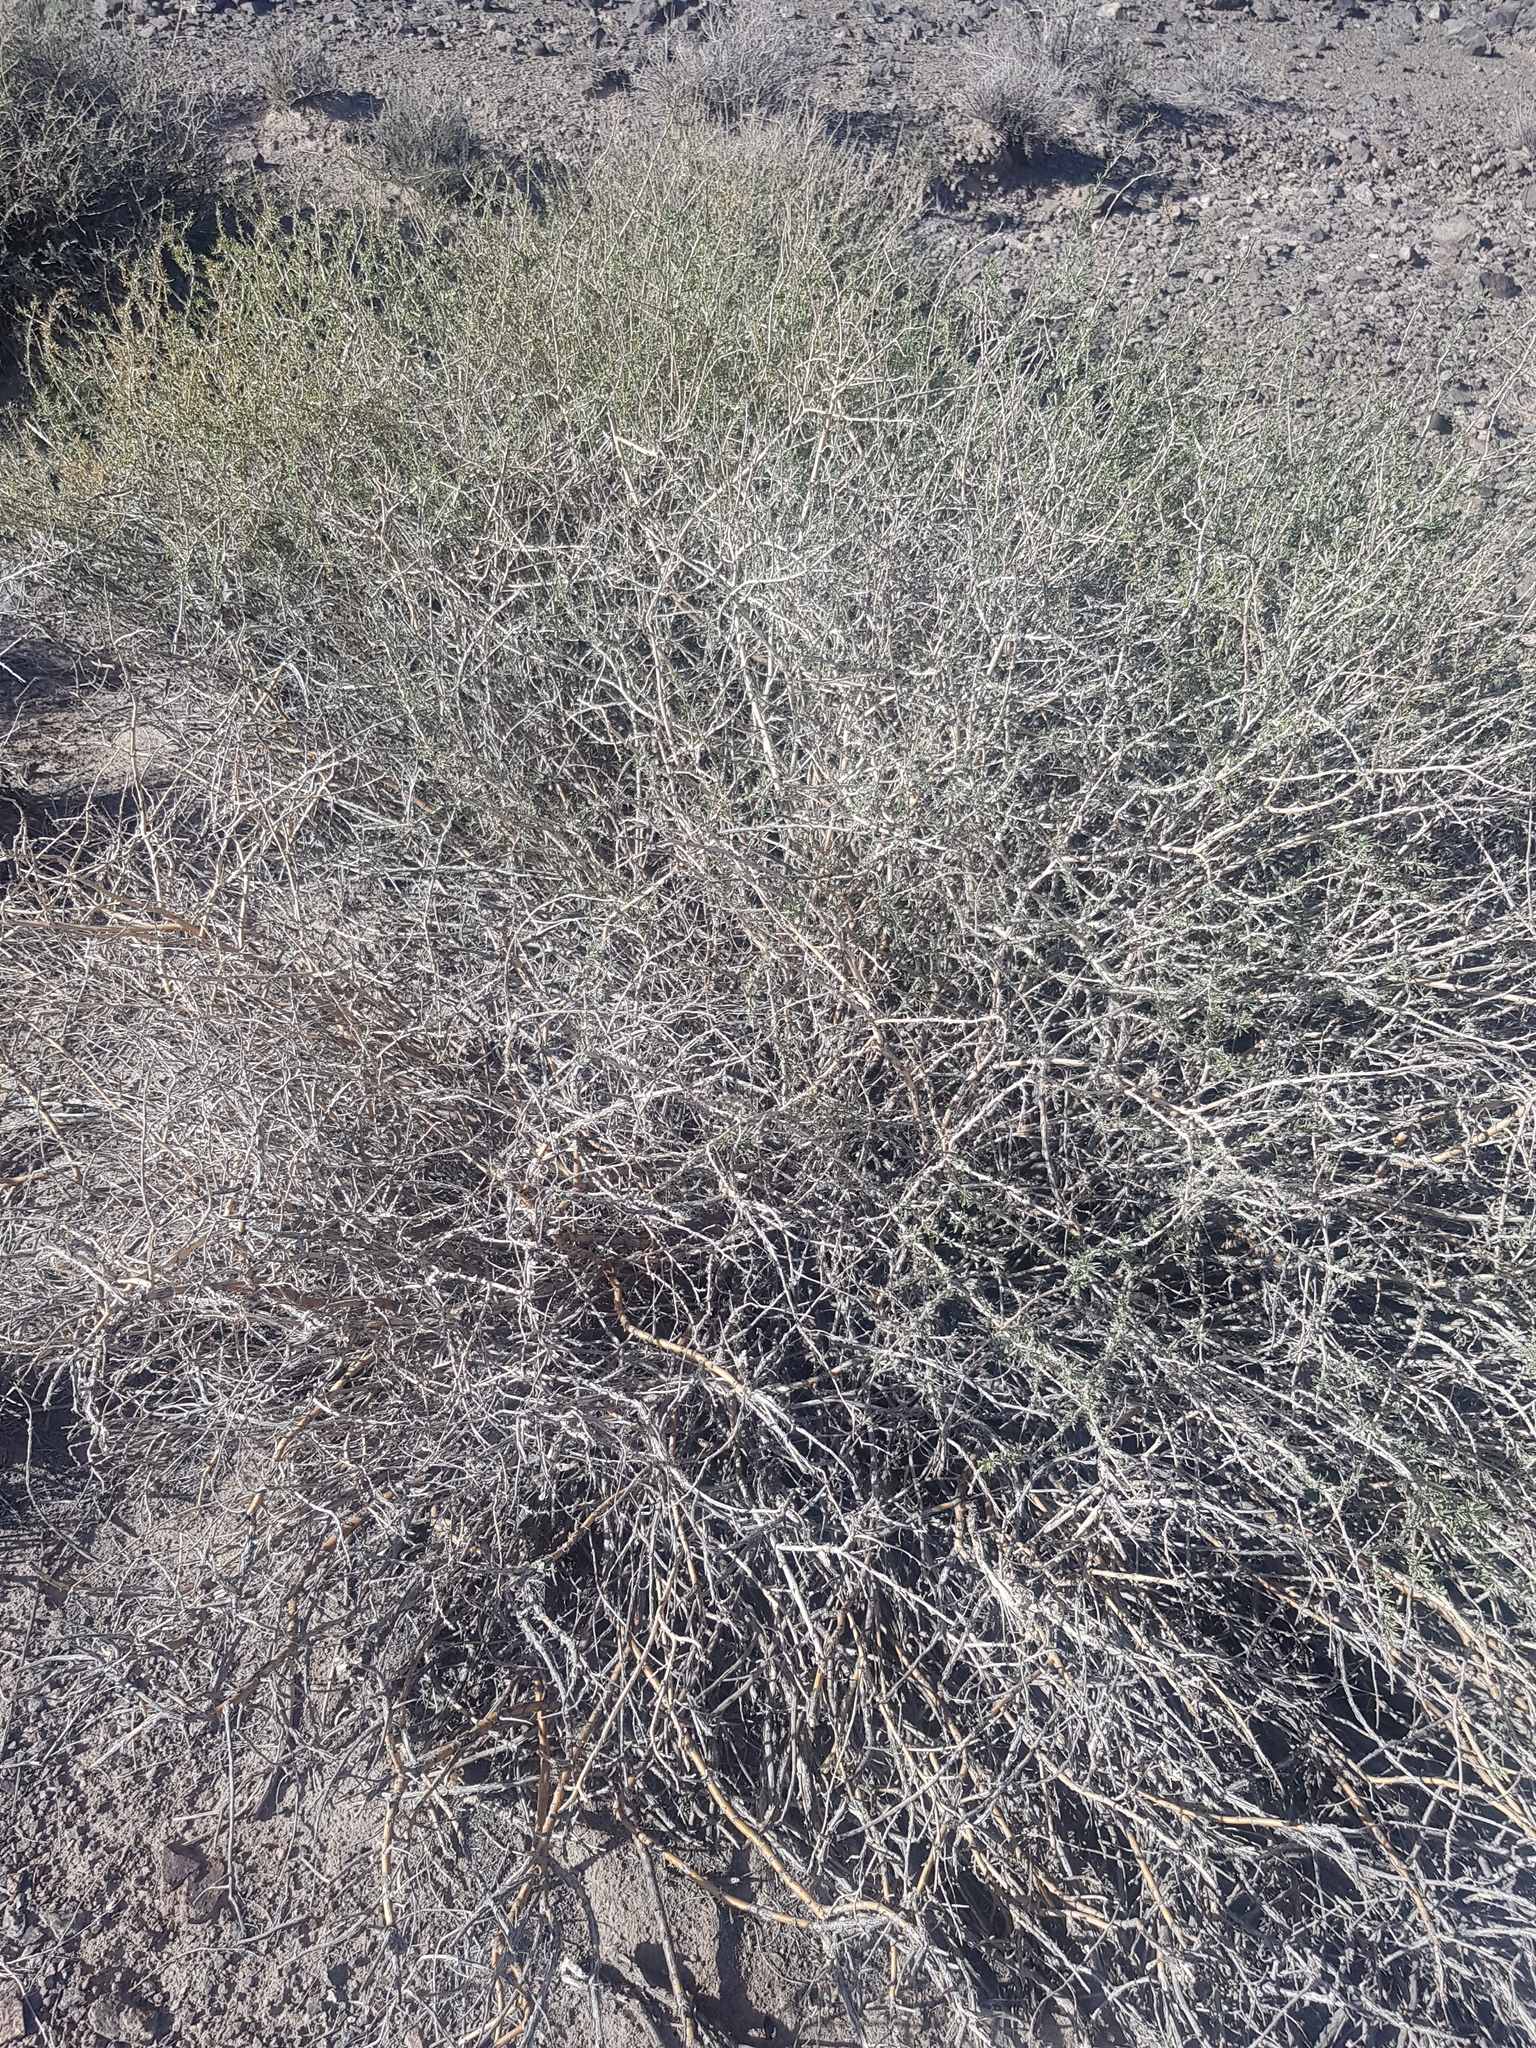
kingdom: Plantae
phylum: Tracheophyta
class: Magnoliopsida
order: Fabales
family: Fabaceae
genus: Caragana
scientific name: Caragana leucophloea
